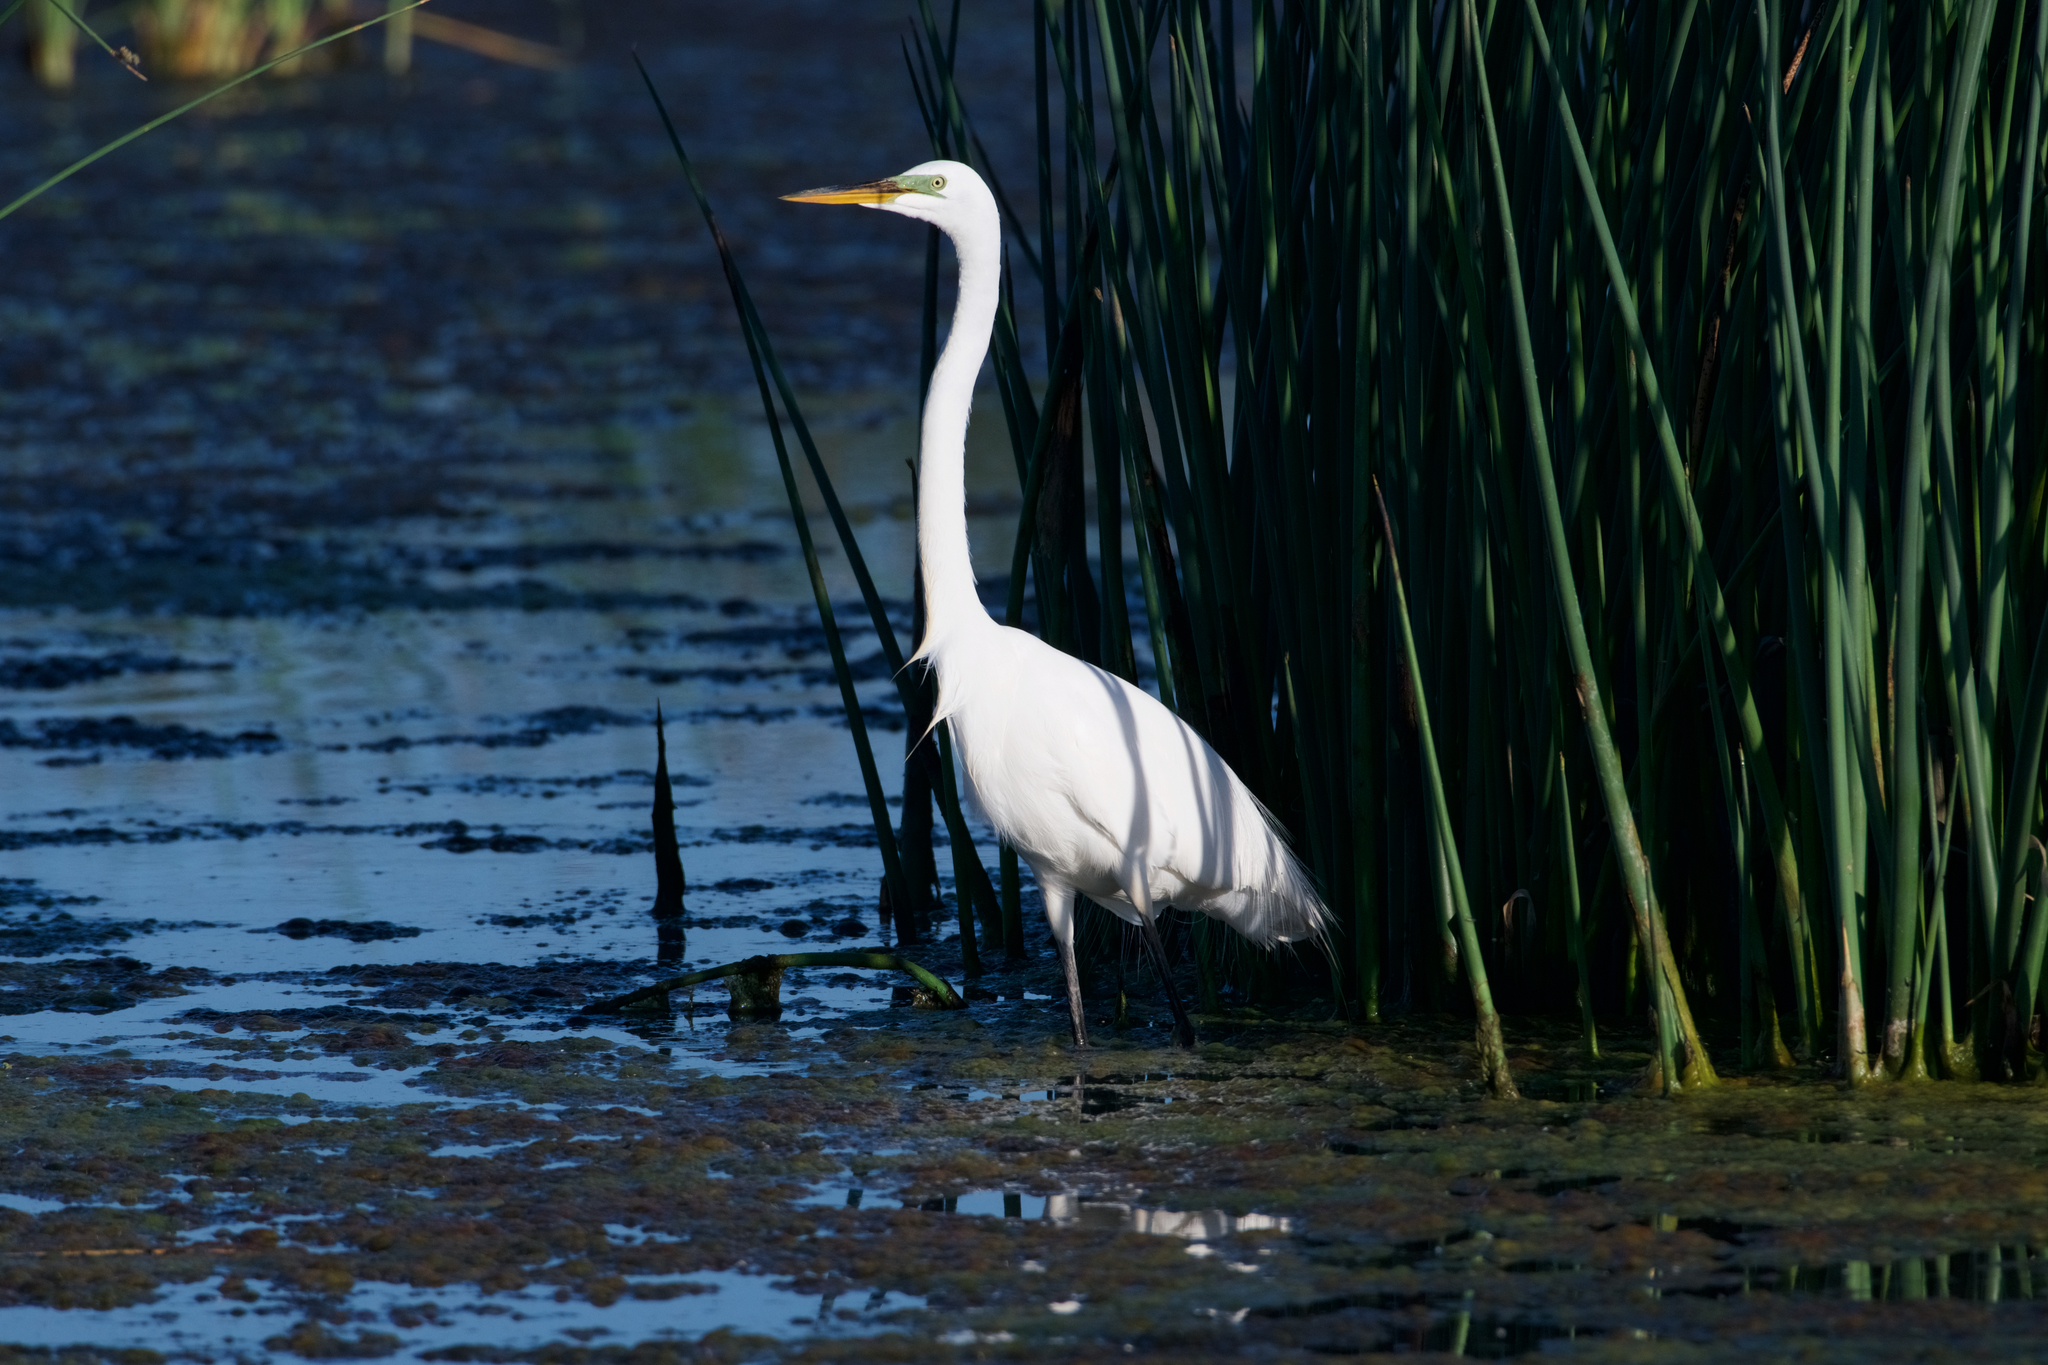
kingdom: Animalia
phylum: Chordata
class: Aves
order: Pelecaniformes
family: Ardeidae
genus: Ardea
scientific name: Ardea alba
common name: Great egret
